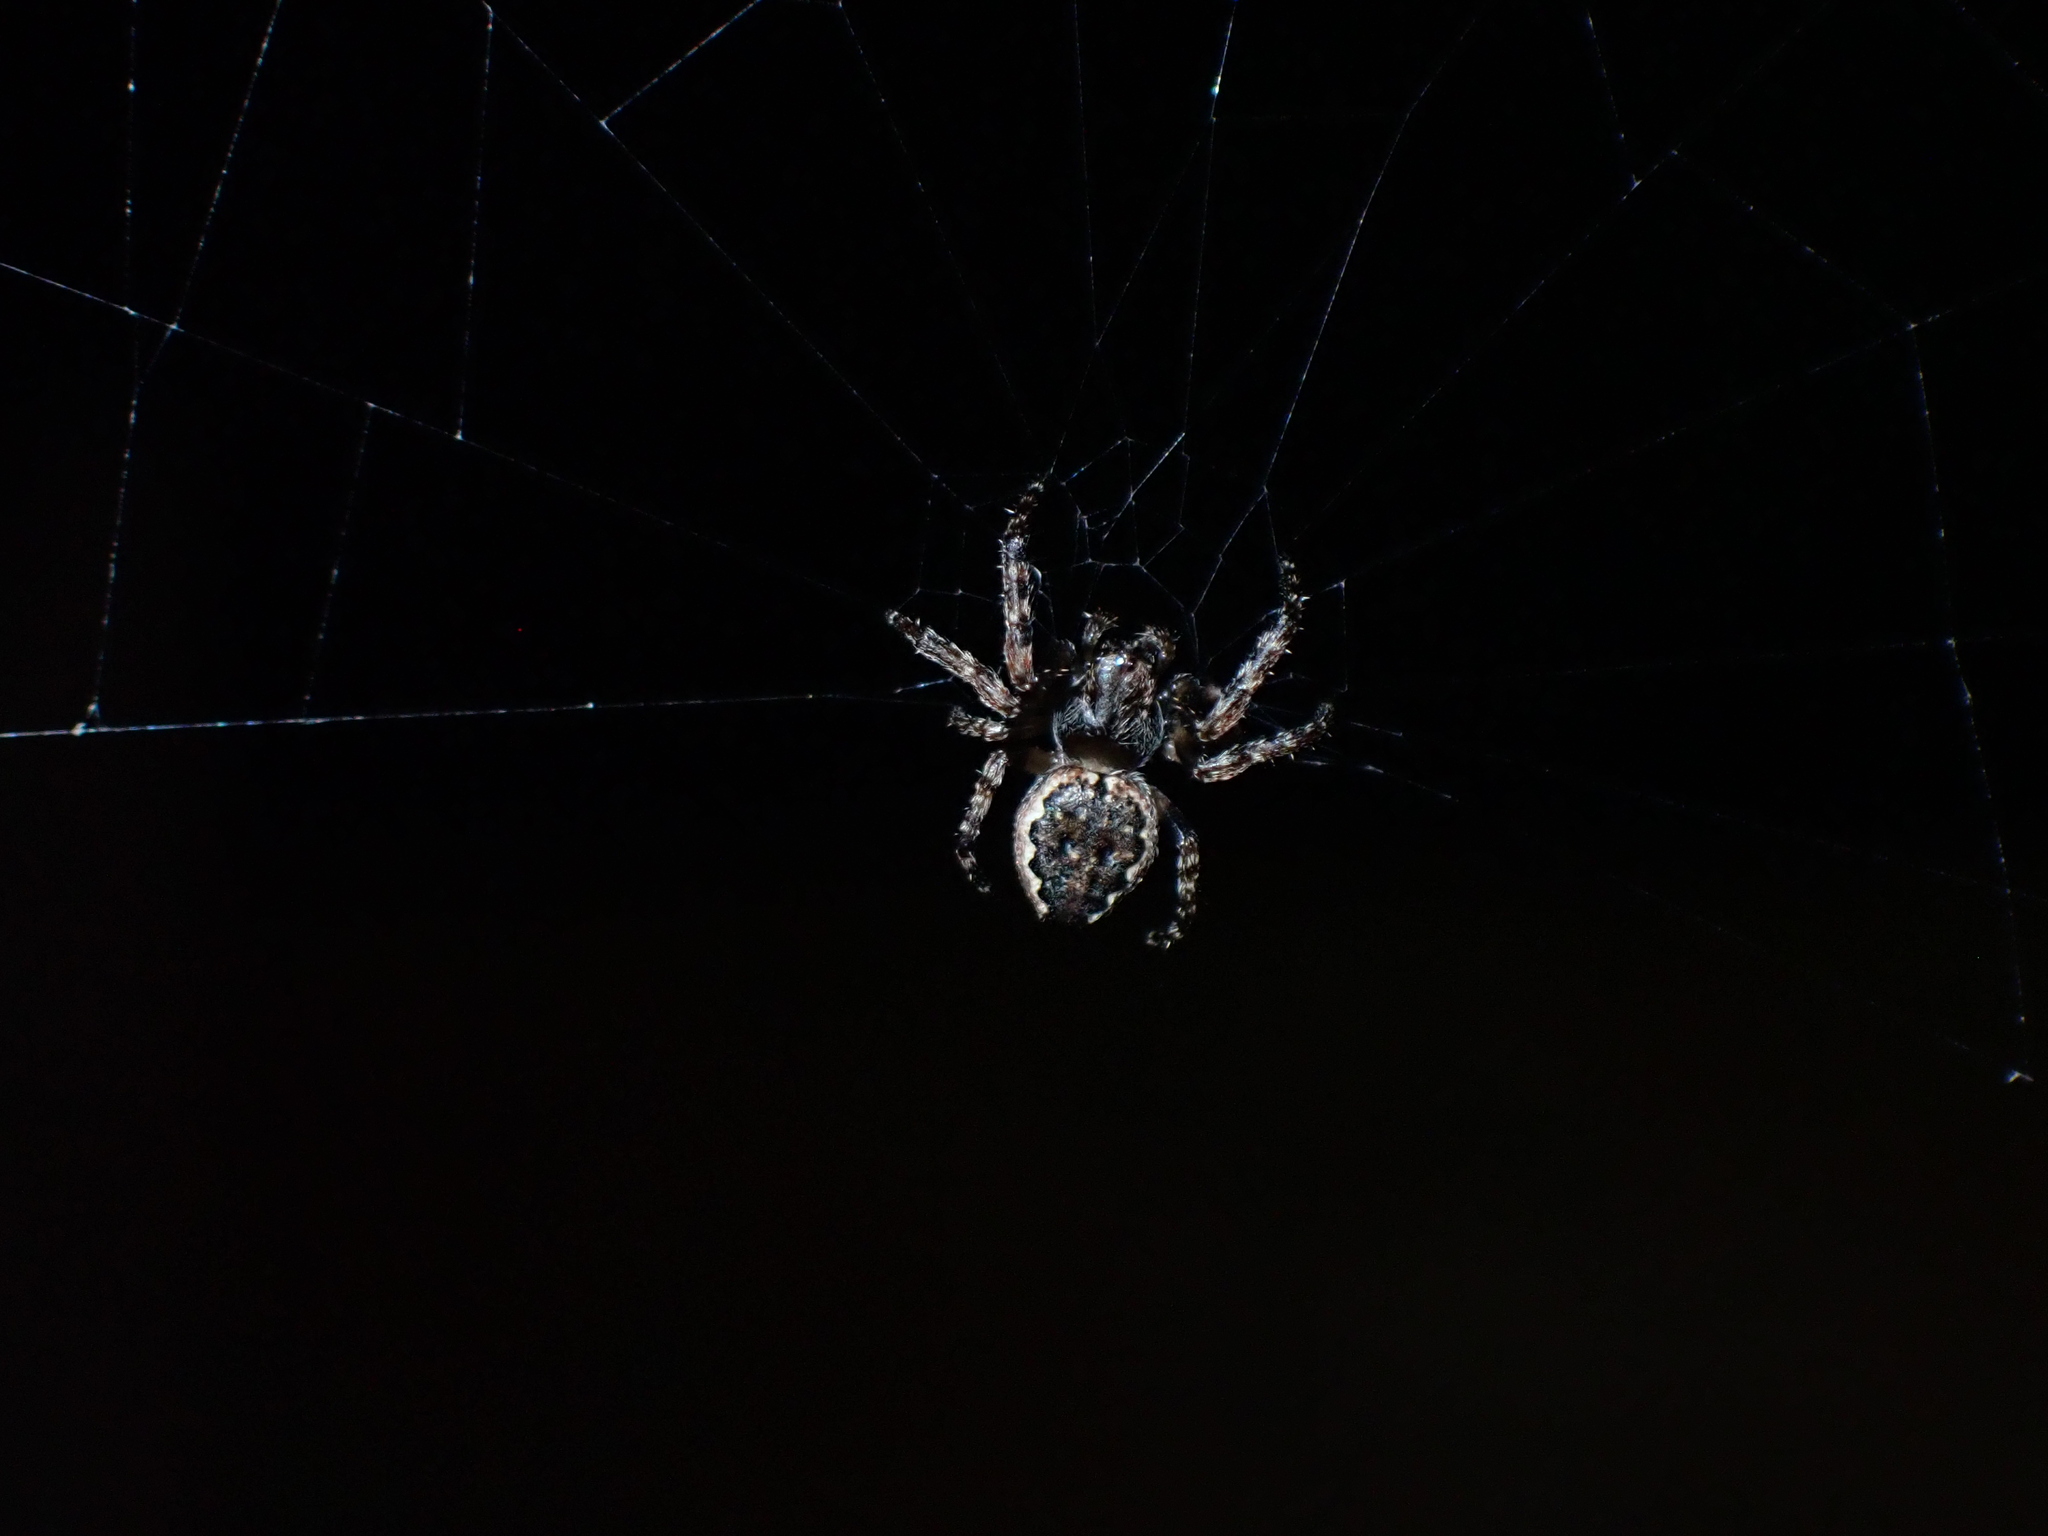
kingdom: Animalia
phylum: Arthropoda
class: Arachnida
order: Araneae
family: Araneidae
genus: Nuctenea
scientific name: Nuctenea umbratica
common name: Toad spider
